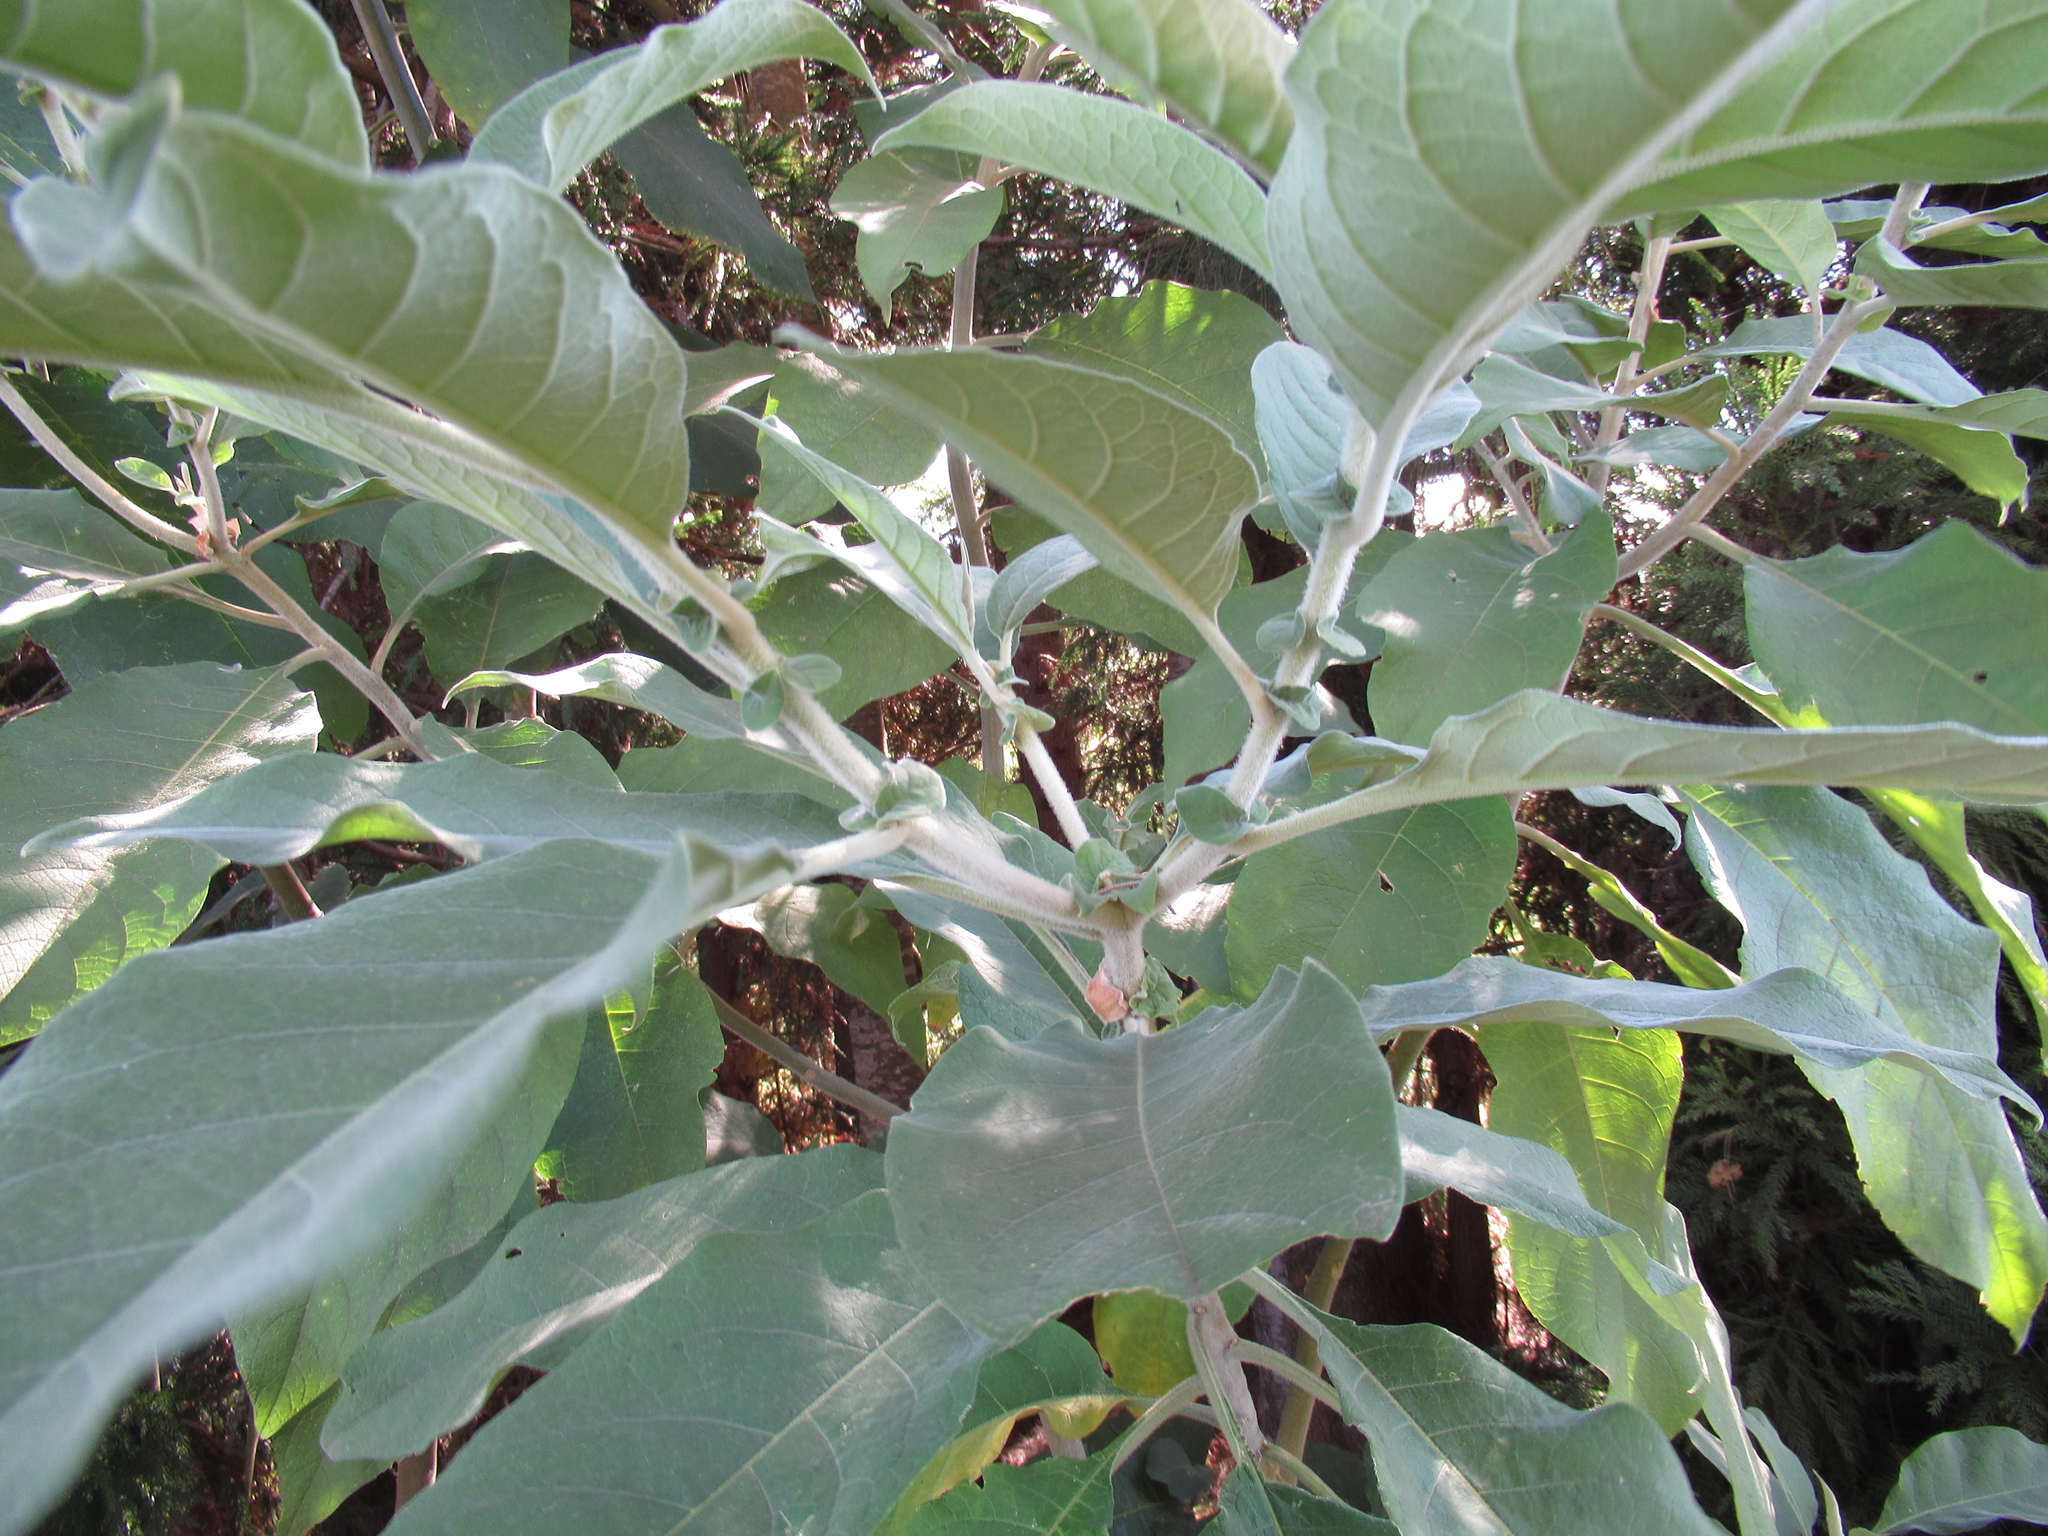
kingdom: Plantae
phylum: Tracheophyta
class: Magnoliopsida
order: Solanales
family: Solanaceae
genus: Solanum
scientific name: Solanum mauritianum
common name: Earleaf nightshade
